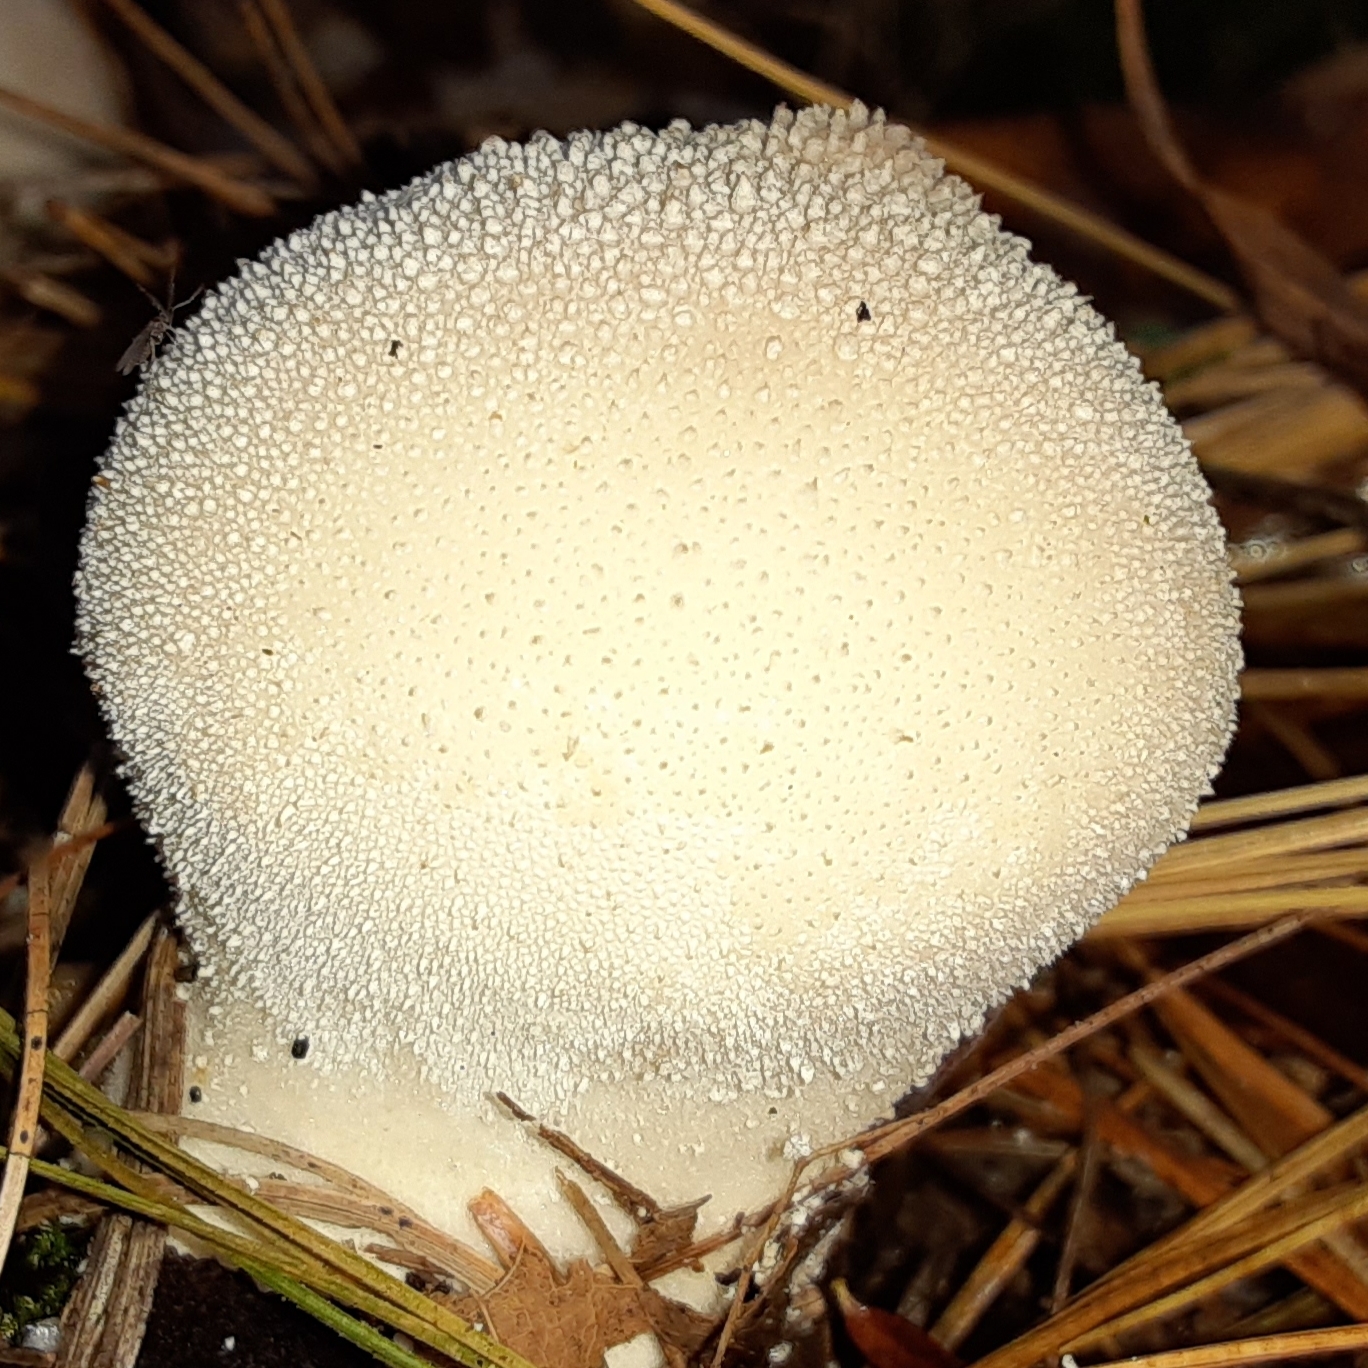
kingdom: Fungi
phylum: Basidiomycota
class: Agaricomycetes
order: Agaricales
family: Lycoperdaceae
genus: Lycoperdon
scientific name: Lycoperdon perlatum
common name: Common puffball
